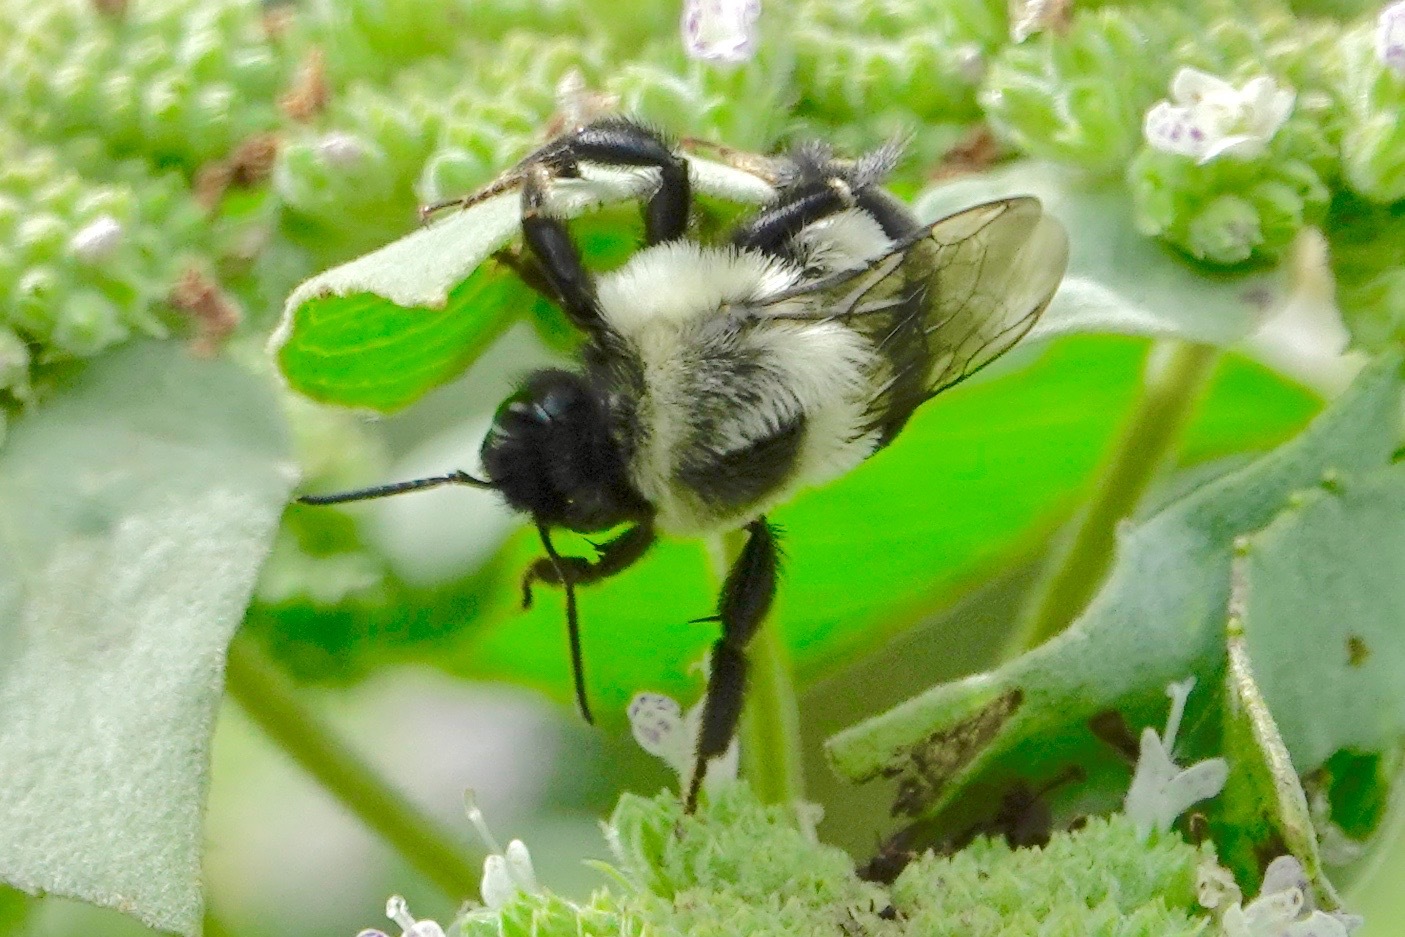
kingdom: Animalia
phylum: Arthropoda
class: Insecta
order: Hymenoptera
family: Apidae
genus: Bombus
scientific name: Bombus impatiens
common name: Common eastern bumble bee
